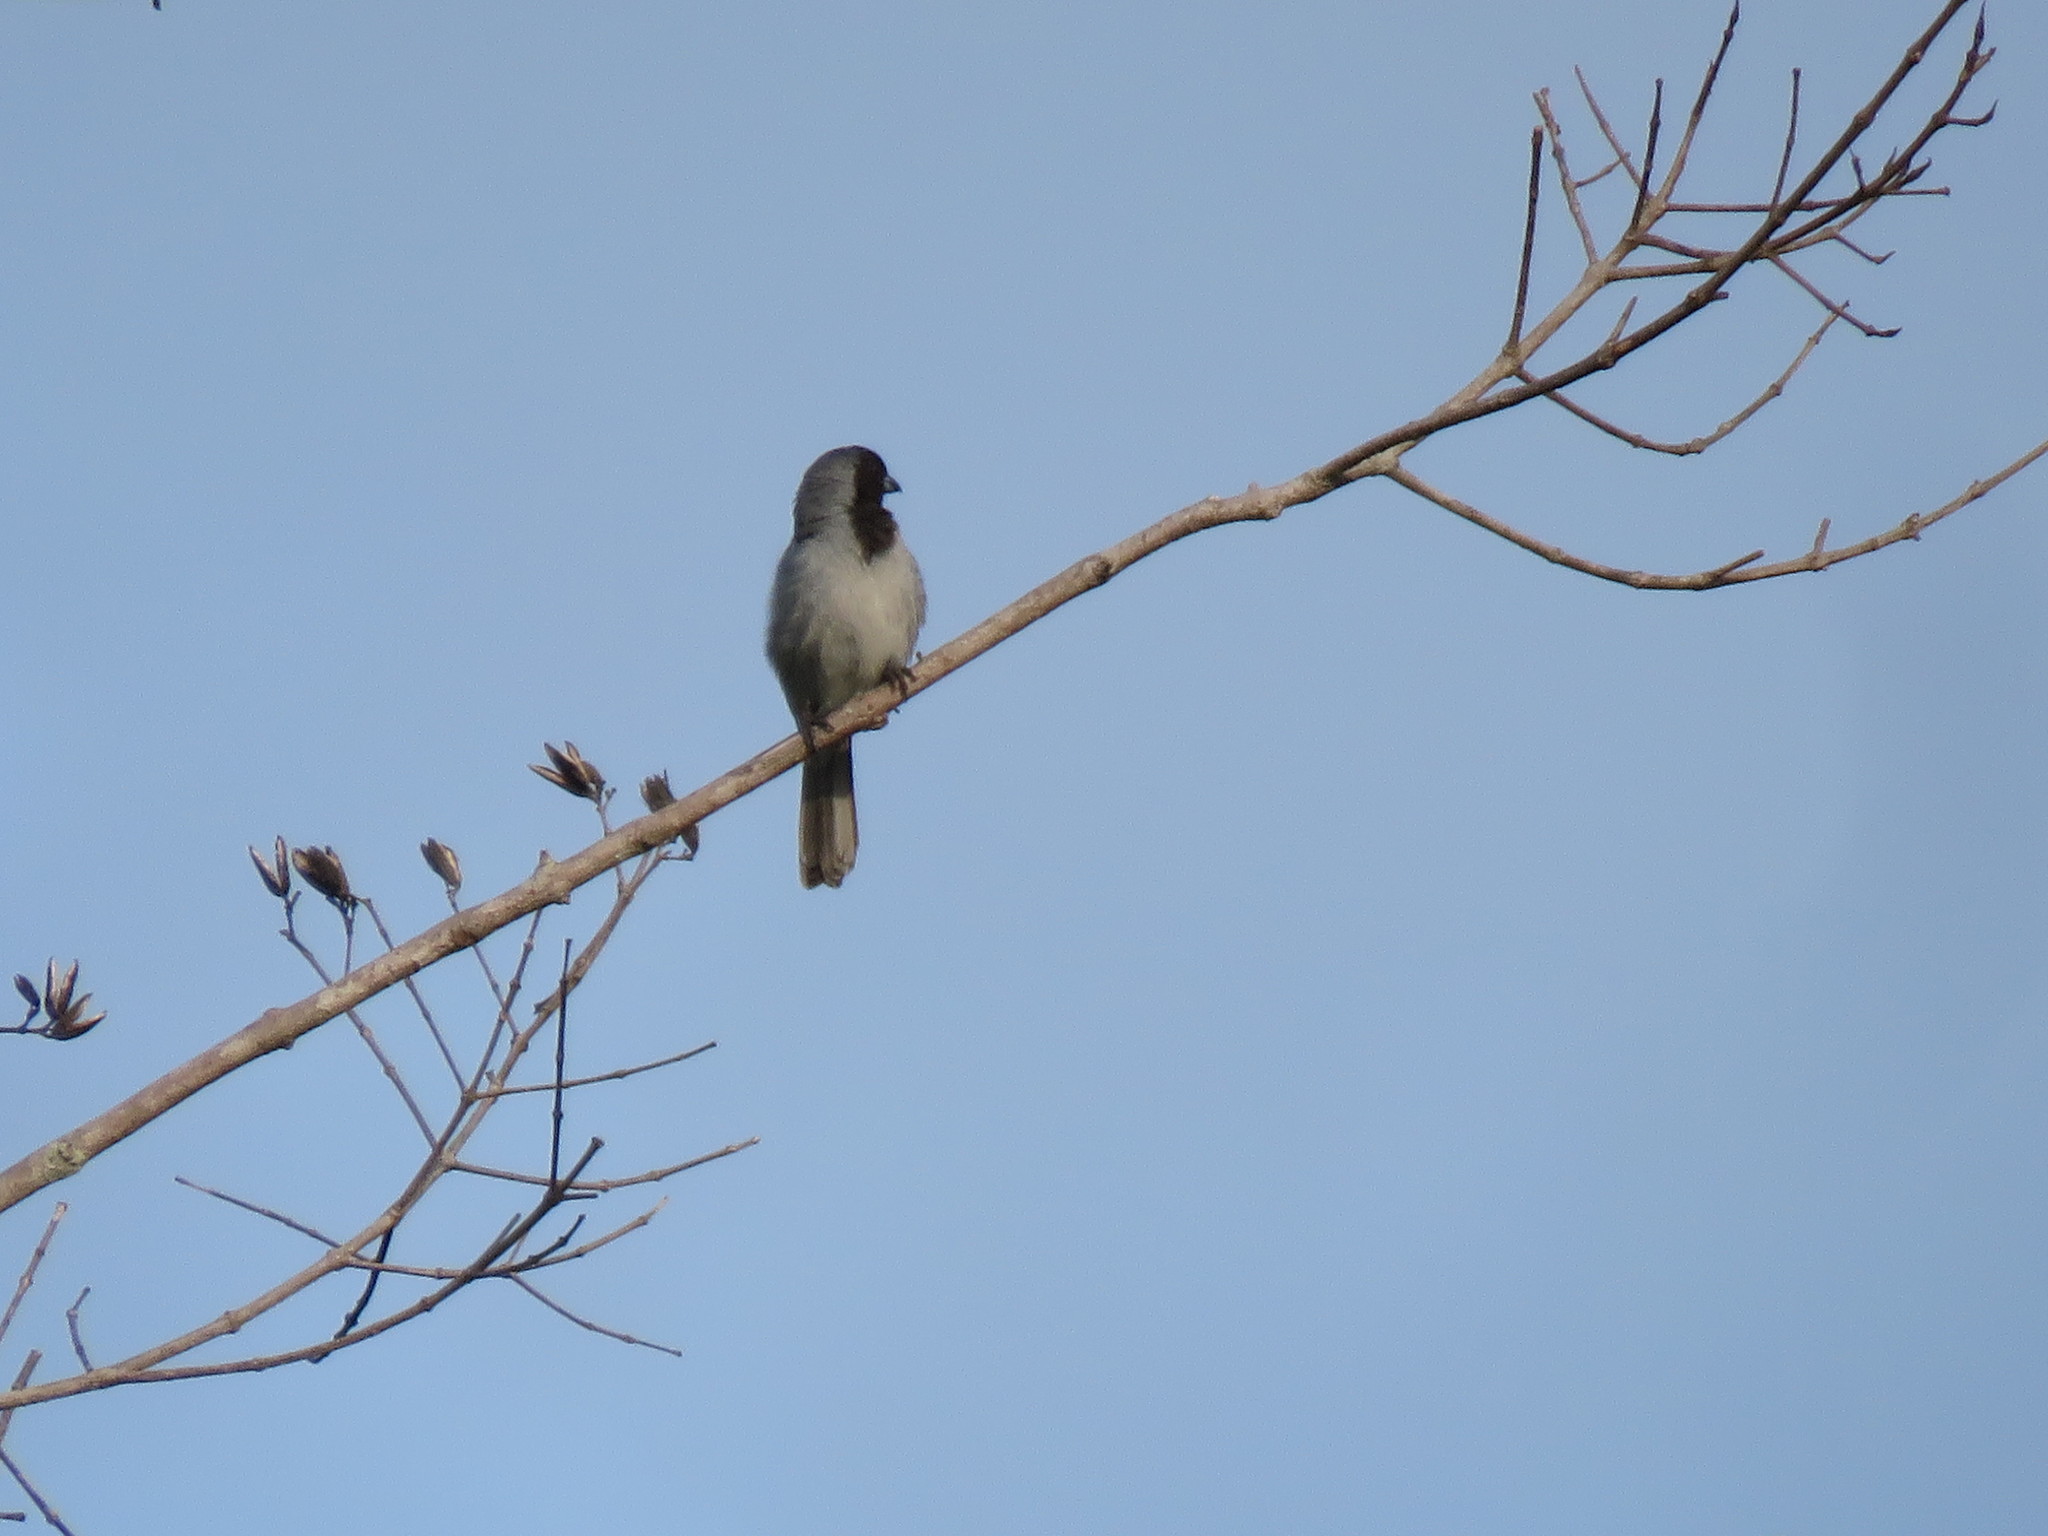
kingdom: Animalia
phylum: Chordata
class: Aves
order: Passeriformes
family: Thraupidae
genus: Schistochlamys
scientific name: Schistochlamys melanopis
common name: Black-faced tanager
